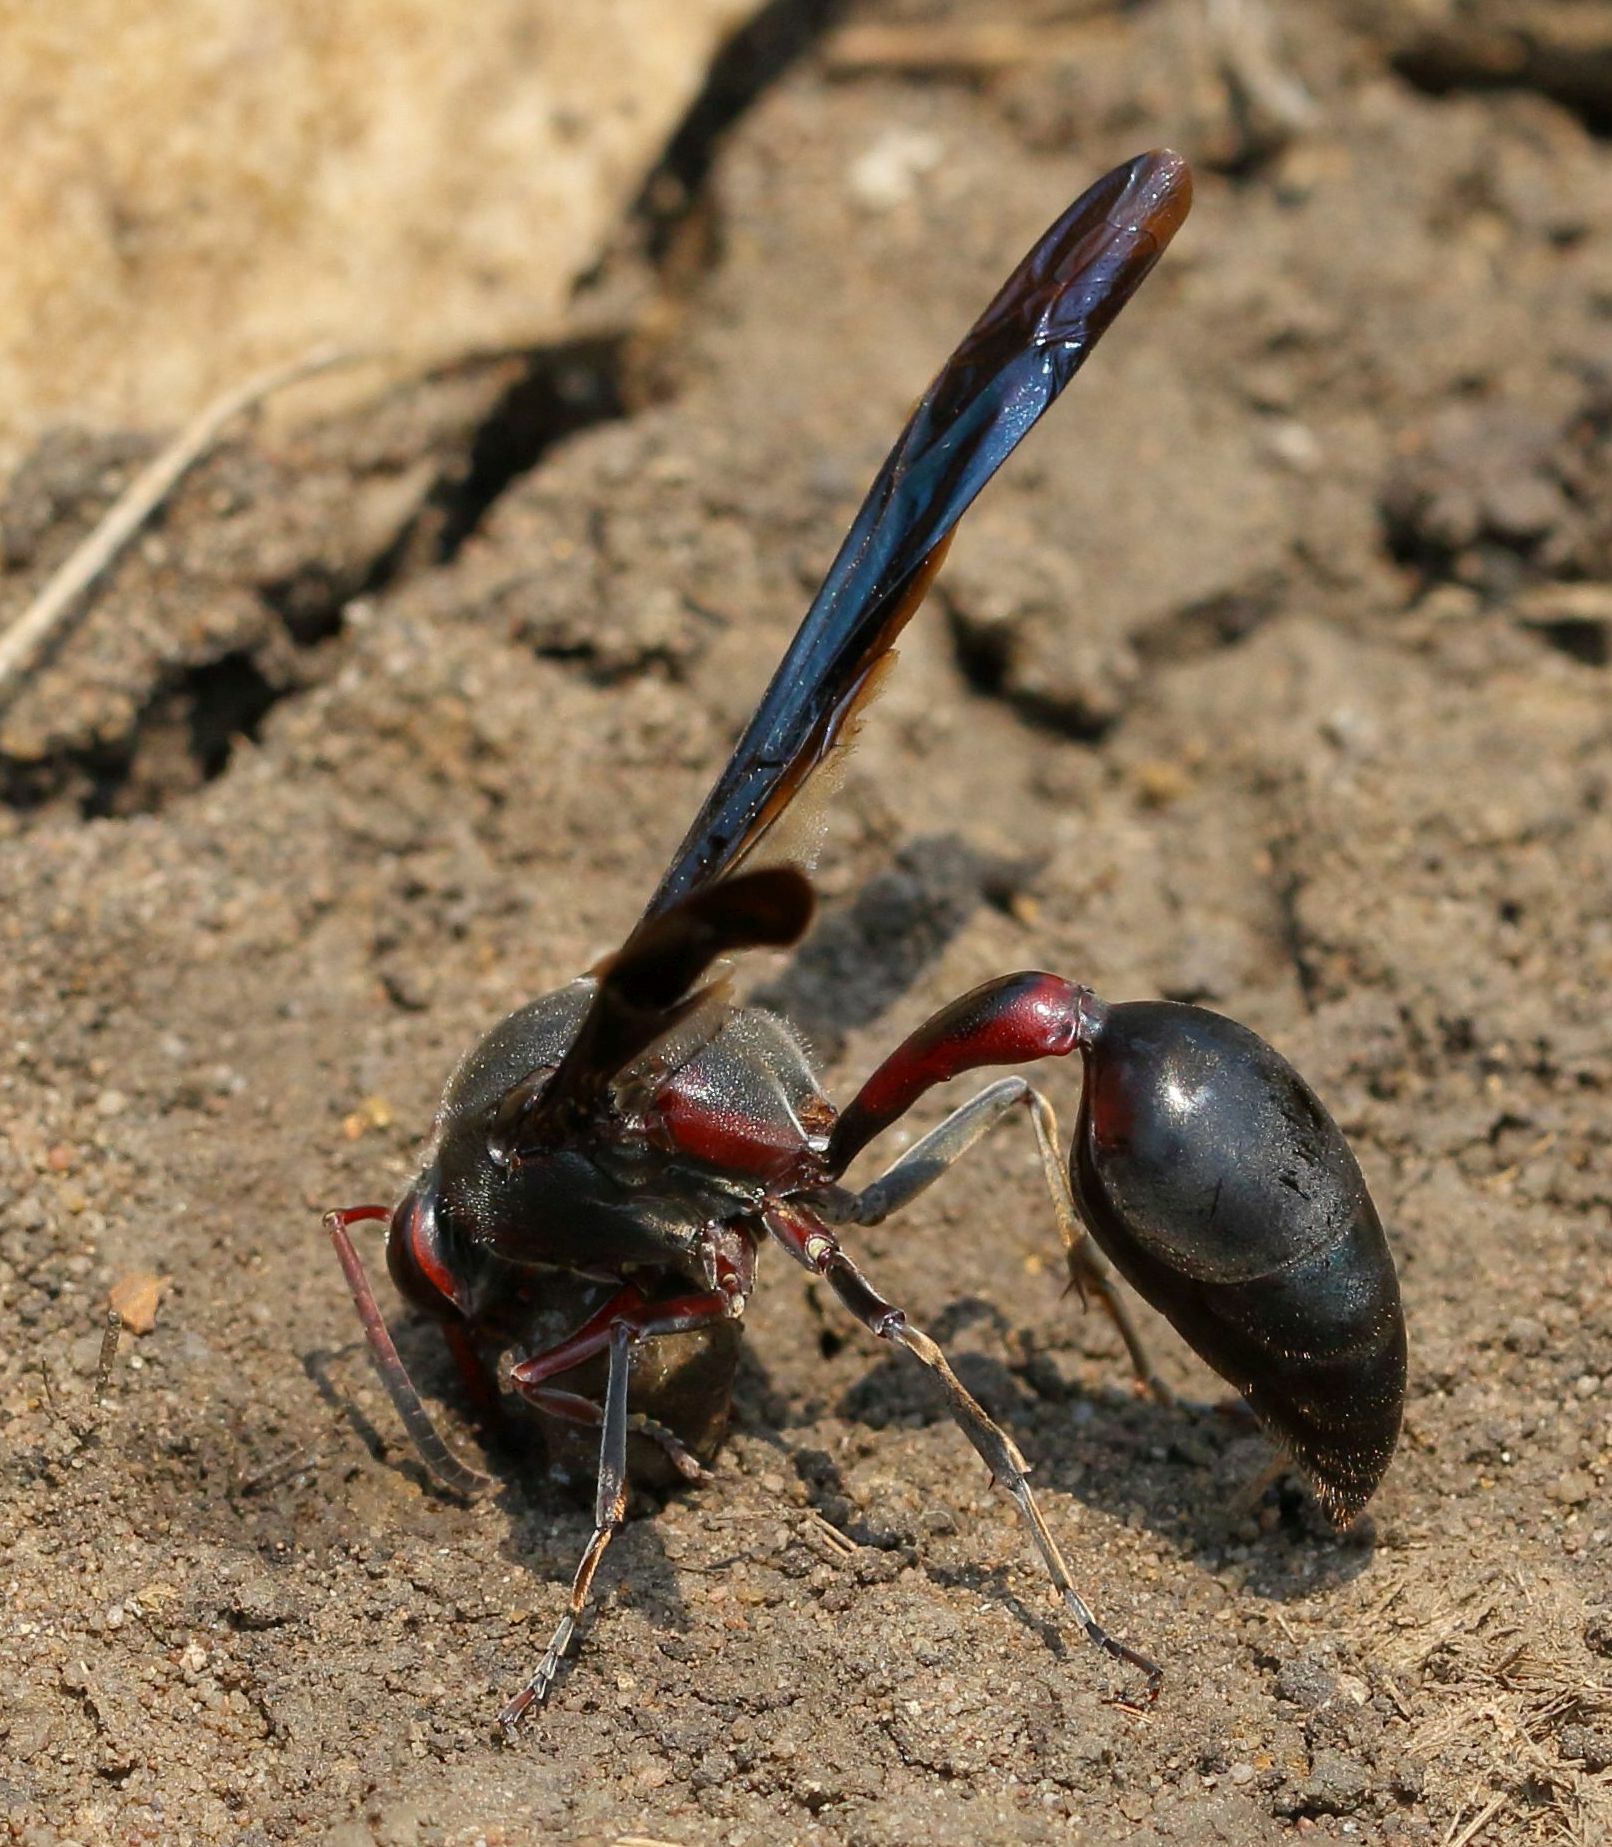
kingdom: Animalia
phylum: Arthropoda
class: Insecta
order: Hymenoptera
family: Eumenidae
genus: Delta
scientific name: Delta emarginatum
